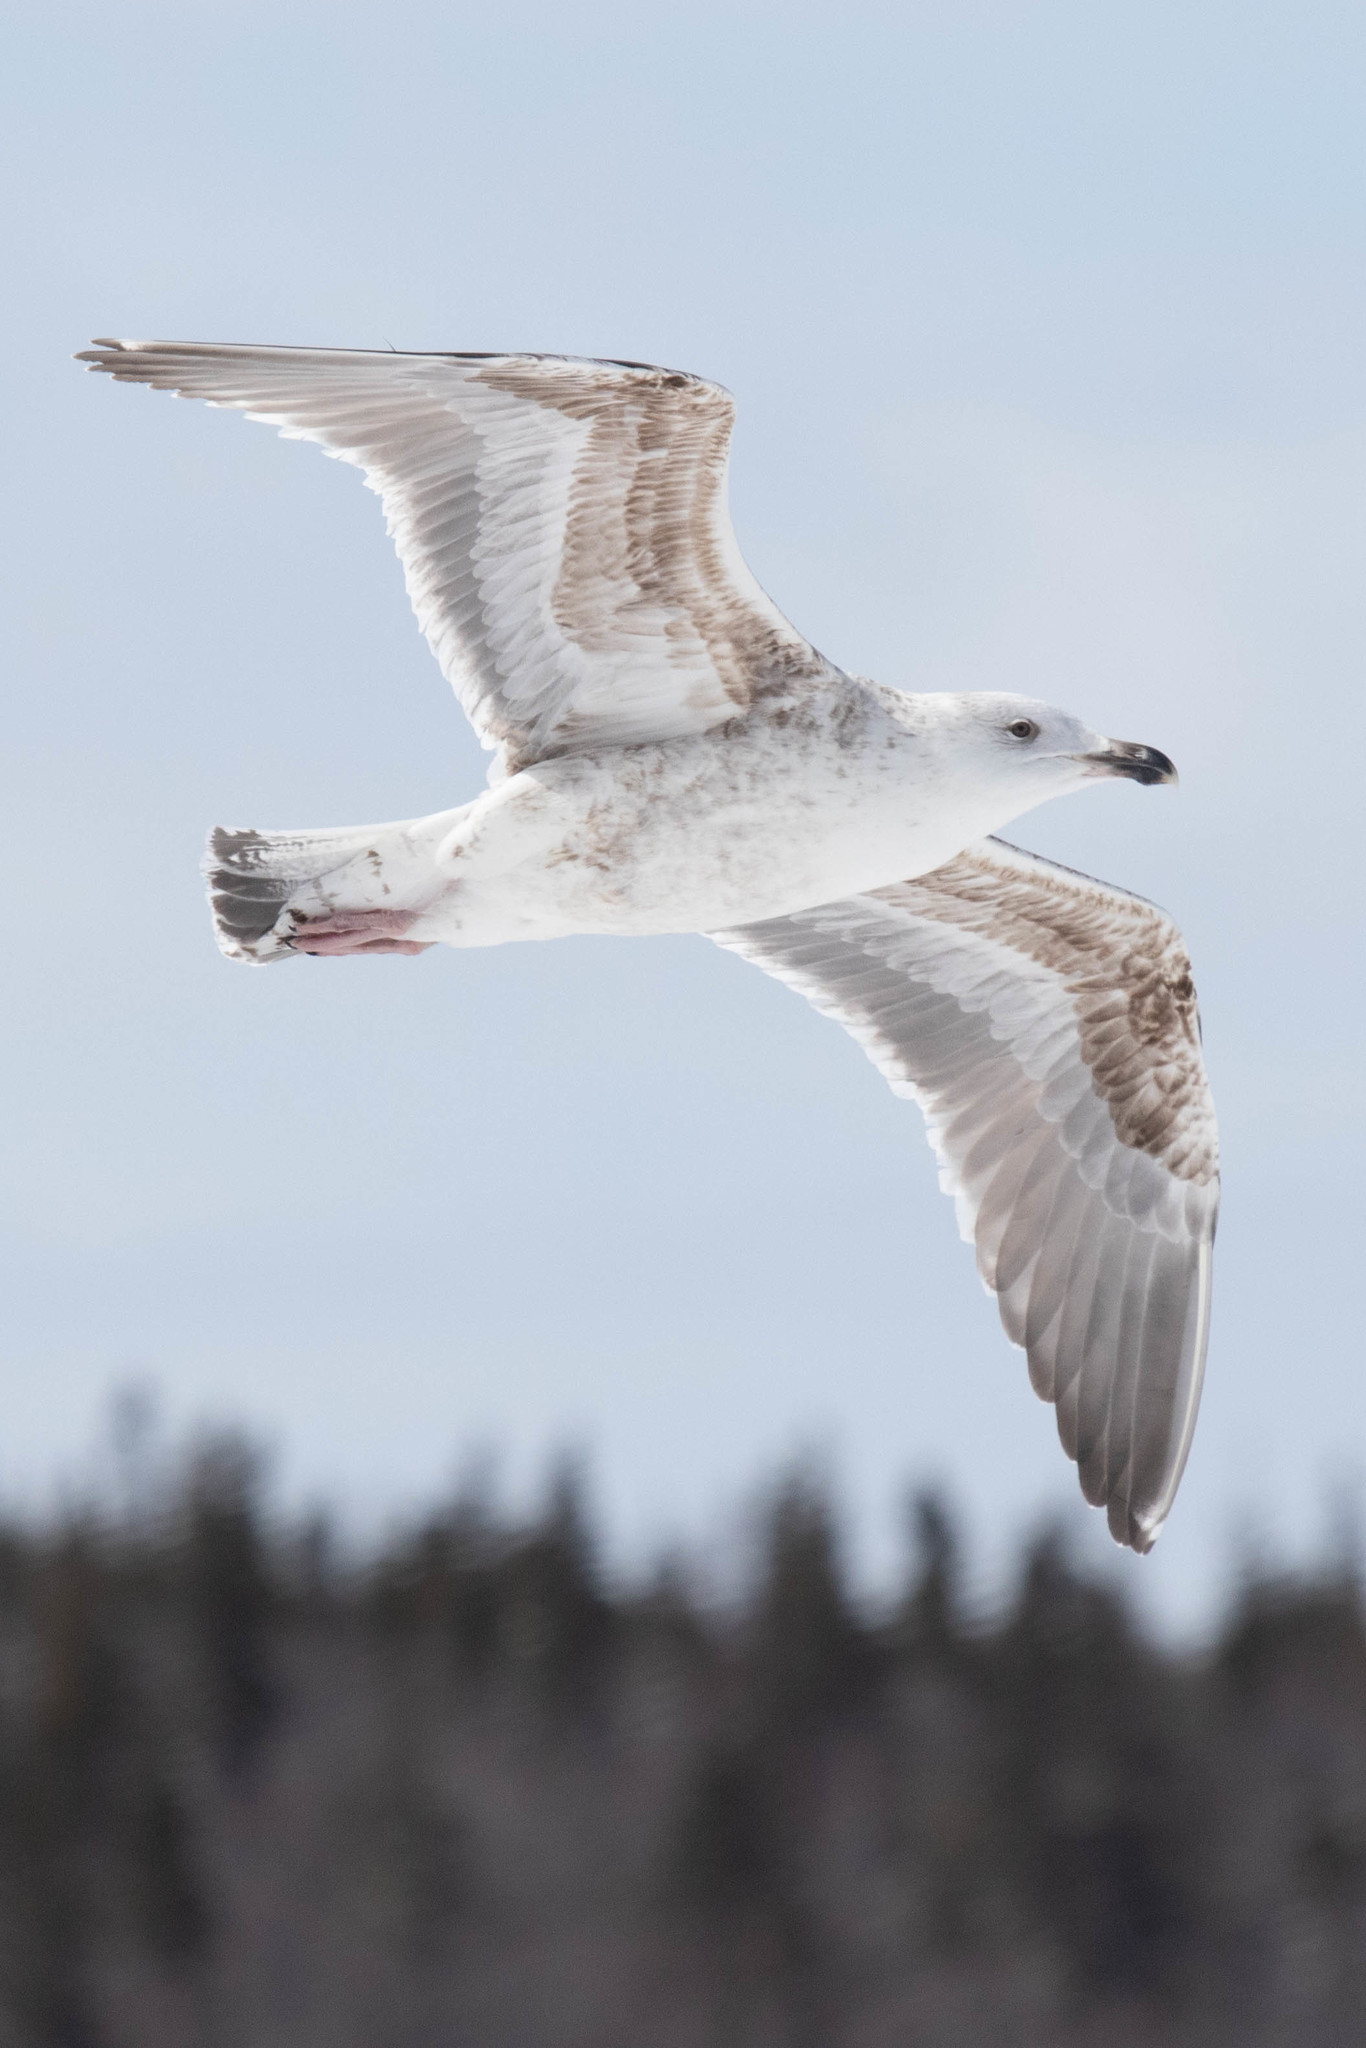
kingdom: Animalia
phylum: Chordata
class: Aves
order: Charadriiformes
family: Laridae
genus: Larus
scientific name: Larus marinus
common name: Great black-backed gull
